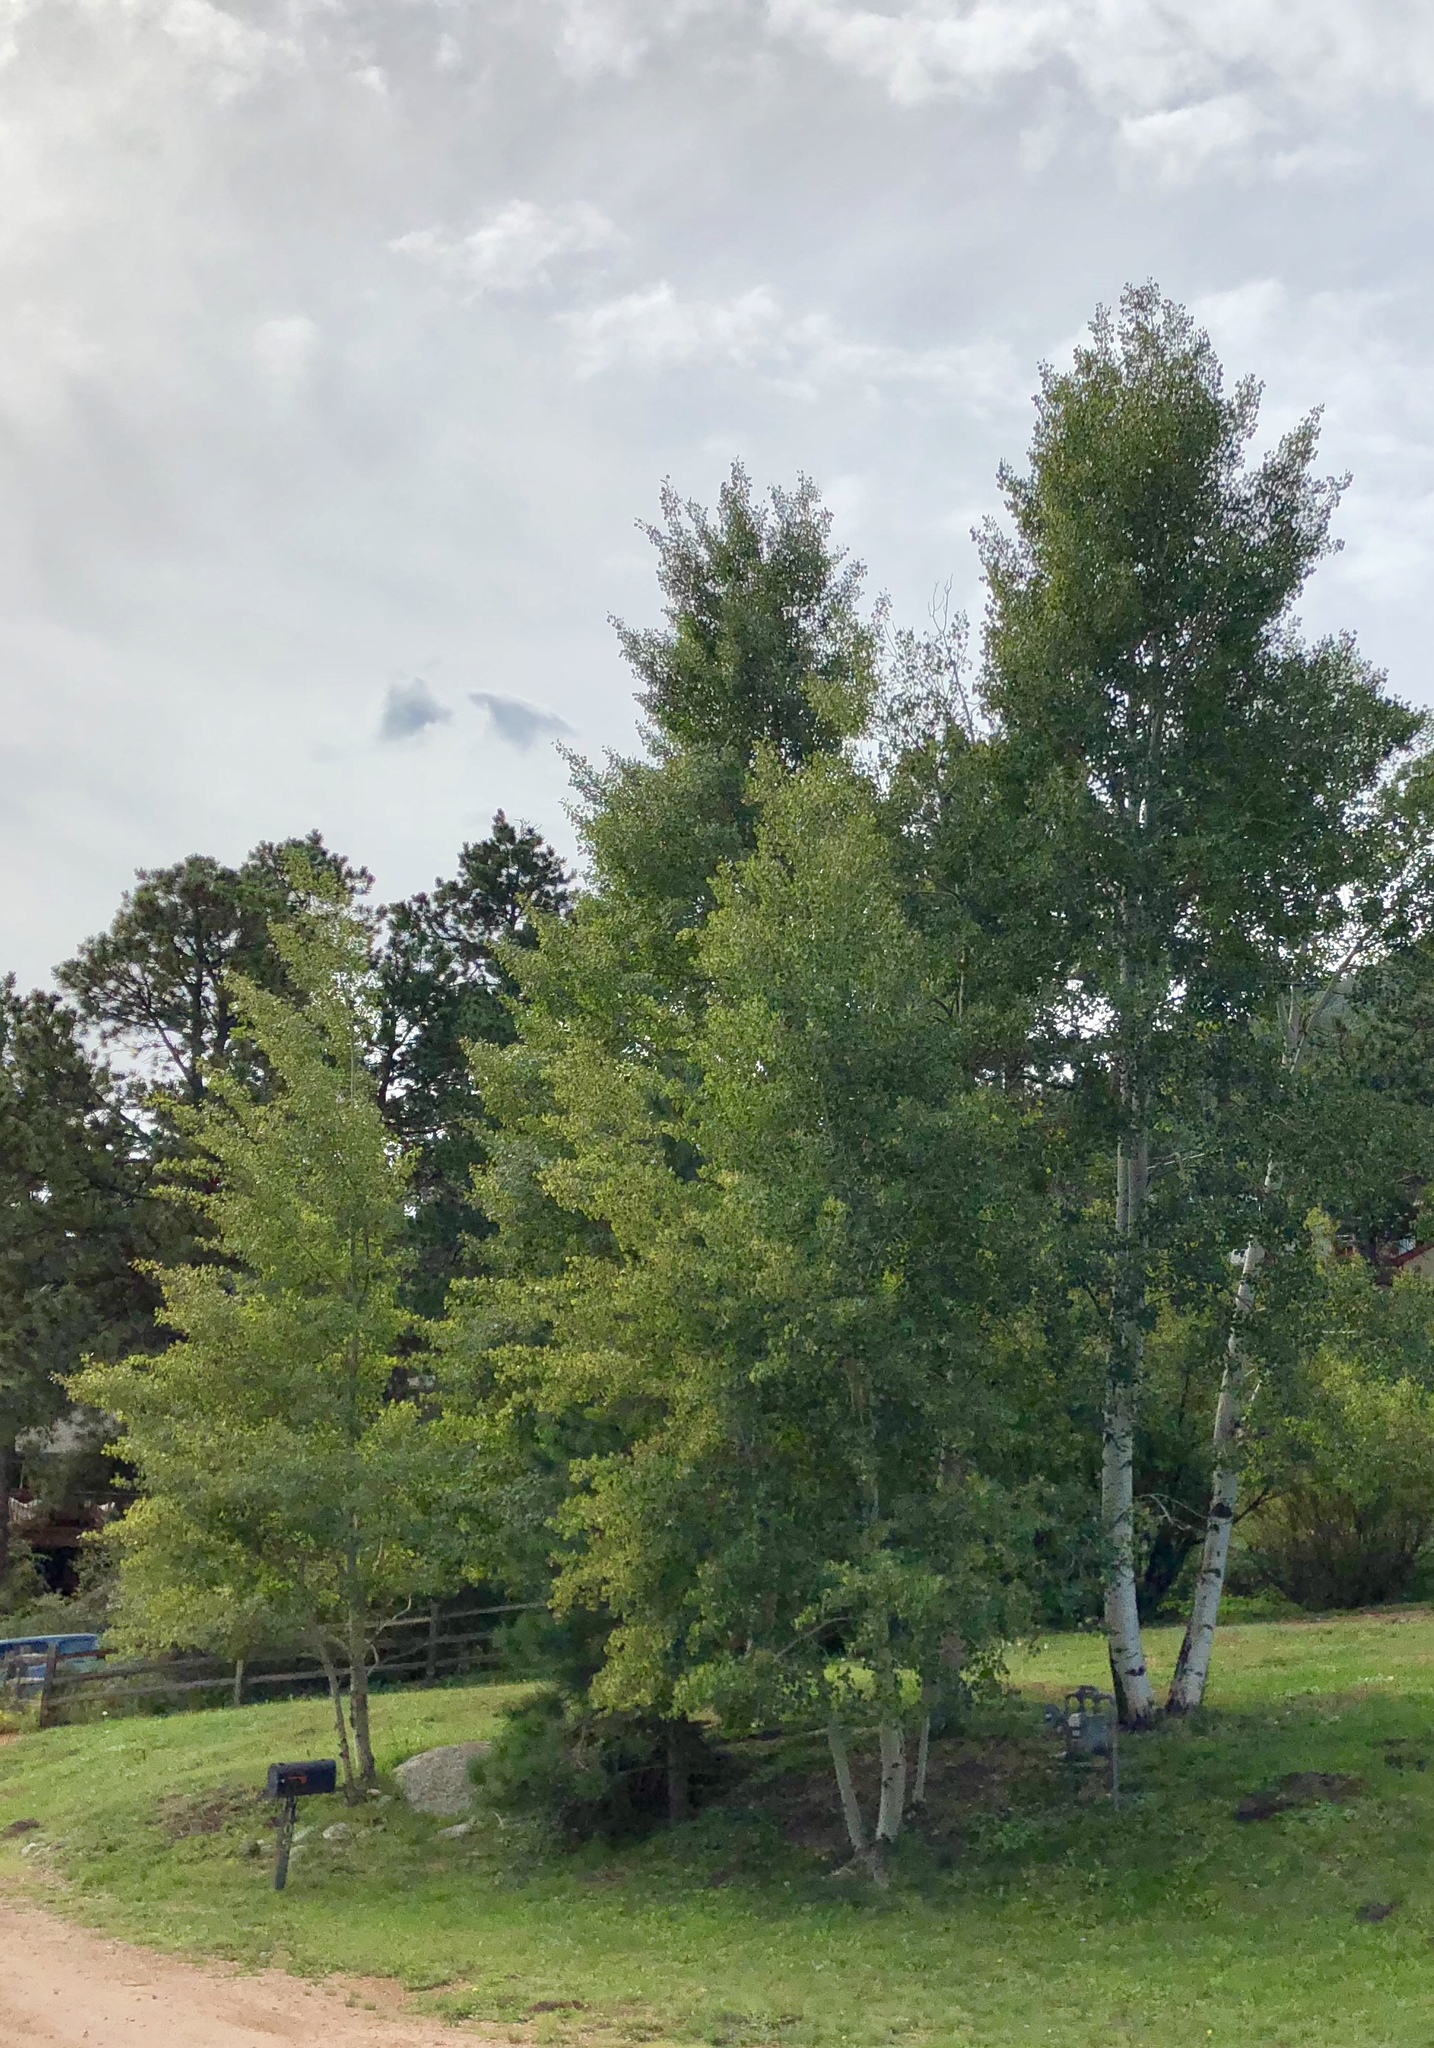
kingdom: Plantae
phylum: Tracheophyta
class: Magnoliopsida
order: Malpighiales
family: Salicaceae
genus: Populus
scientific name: Populus tremuloides
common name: Quaking aspen
